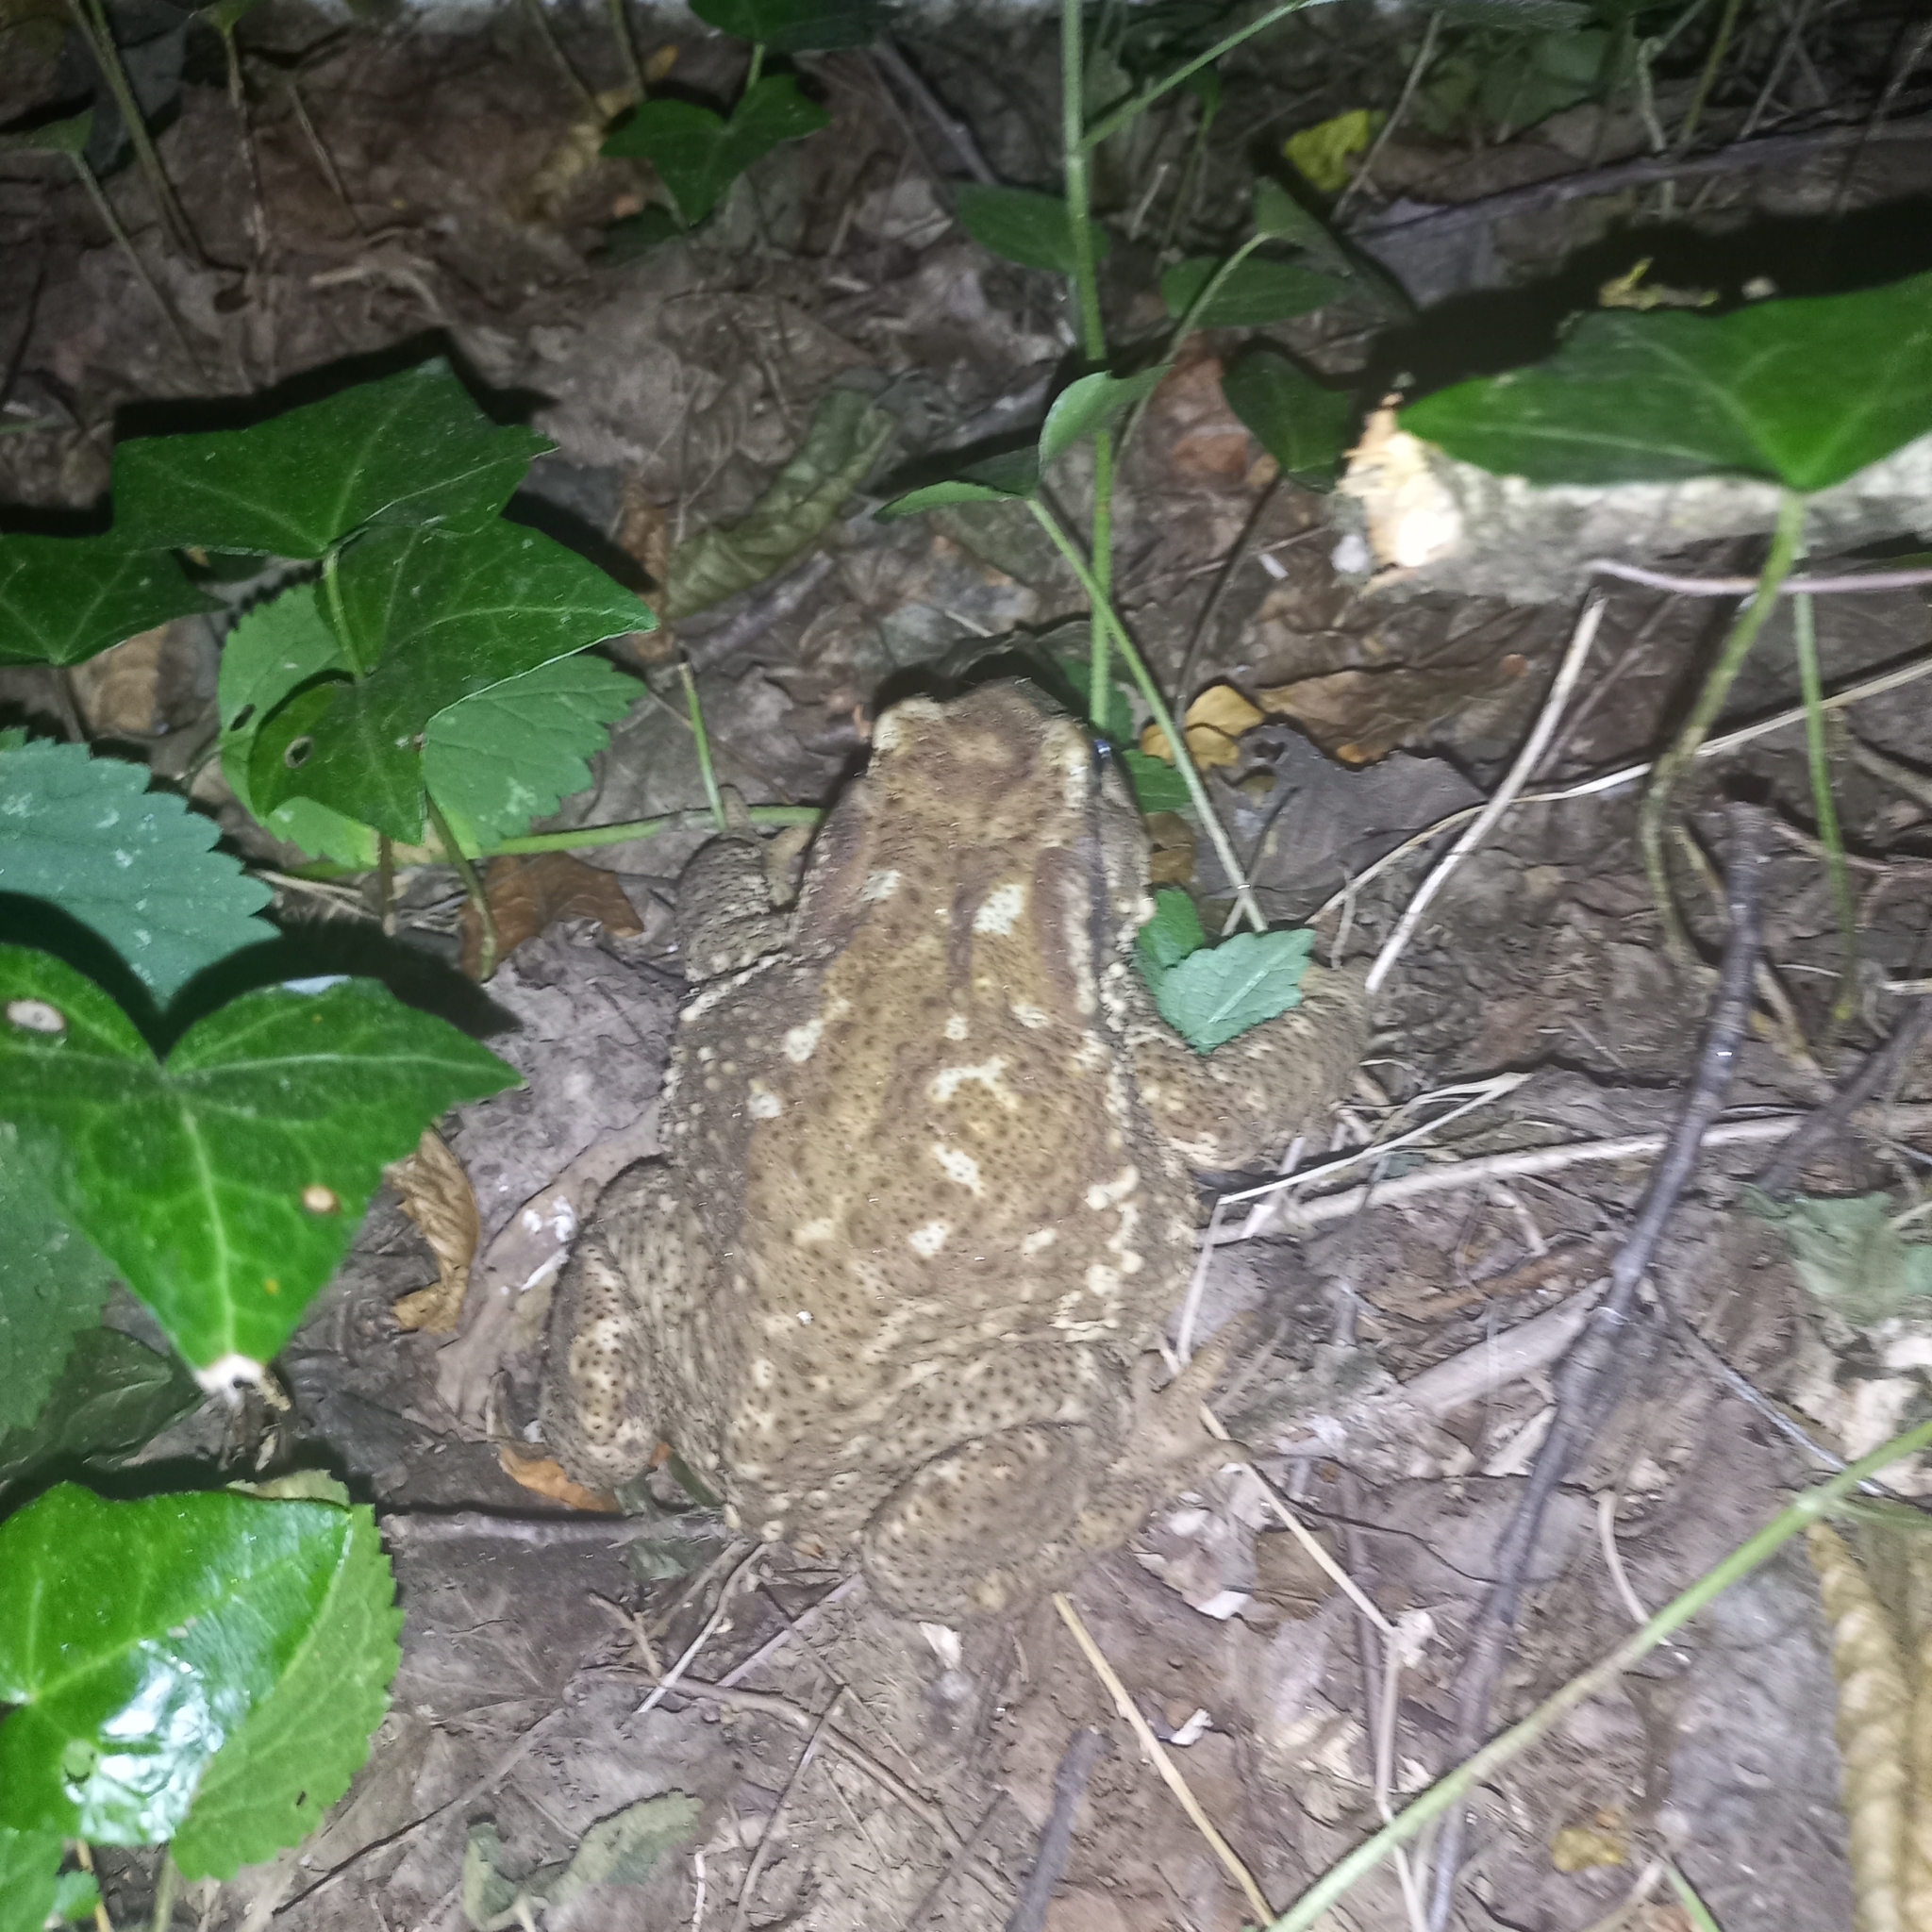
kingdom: Animalia
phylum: Chordata
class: Amphibia
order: Anura
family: Bufonidae
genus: Bufo
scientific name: Bufo spinosus
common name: Western common toad
